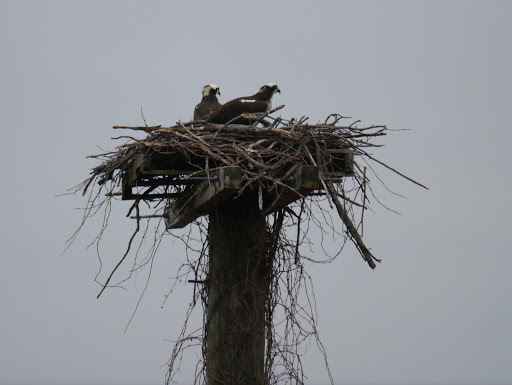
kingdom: Animalia
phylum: Chordata
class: Aves
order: Accipitriformes
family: Pandionidae
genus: Pandion
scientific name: Pandion haliaetus
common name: Osprey
